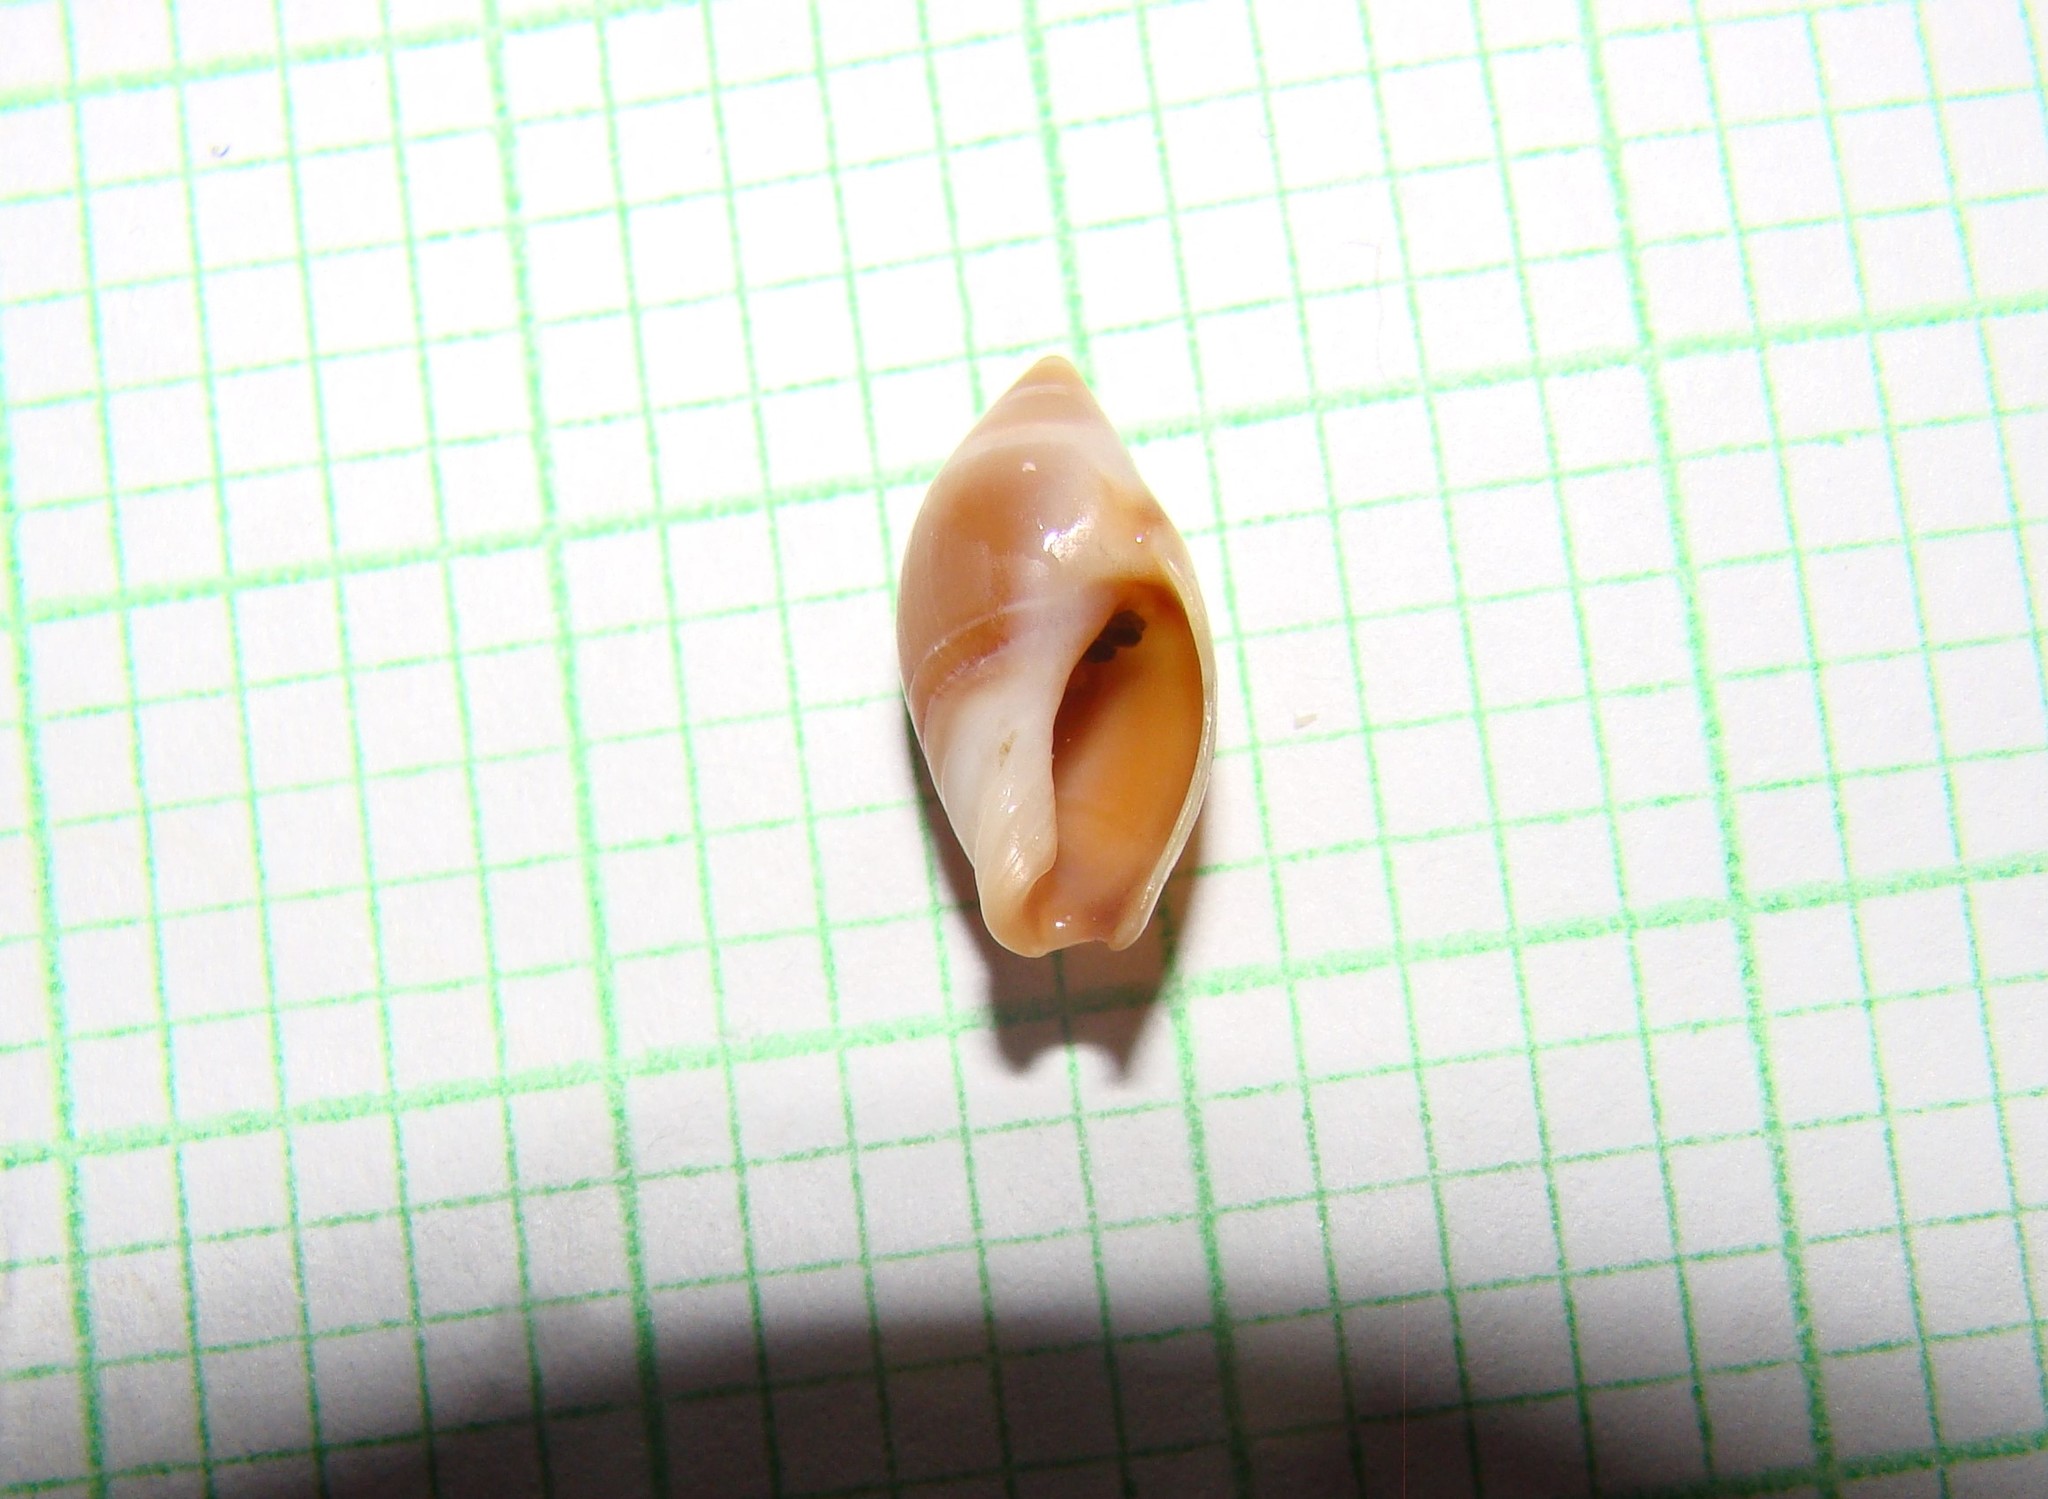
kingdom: Animalia
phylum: Mollusca
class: Gastropoda
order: Neogastropoda
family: Ancillariidae
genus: Amalda
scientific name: Amalda depressa
